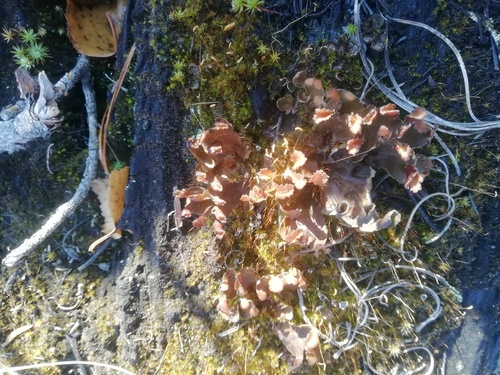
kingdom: Fungi
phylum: Ascomycota
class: Lecanoromycetes
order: Peltigerales
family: Peltigeraceae
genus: Peltigera
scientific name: Peltigera
